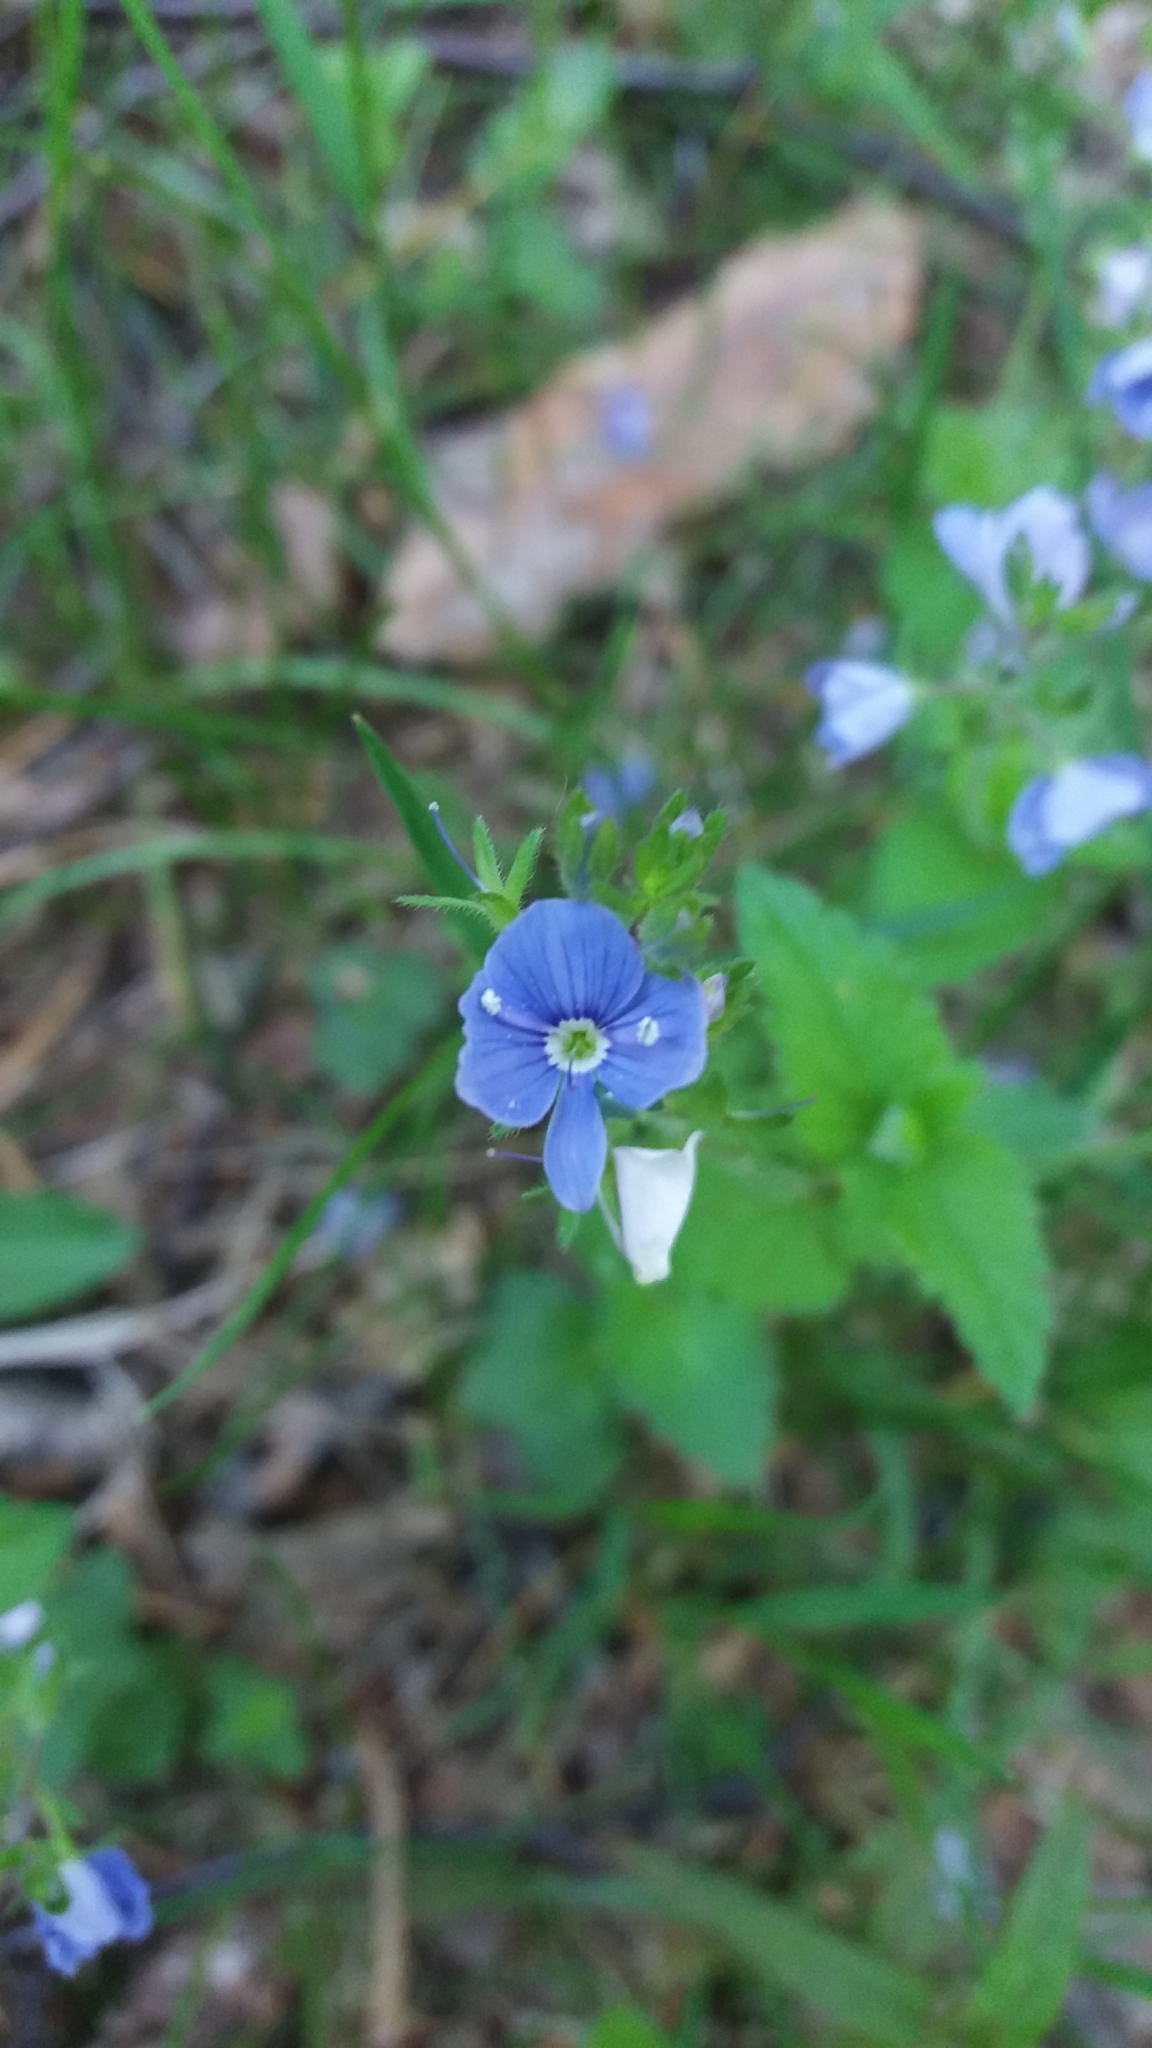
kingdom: Plantae
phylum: Tracheophyta
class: Magnoliopsida
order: Lamiales
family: Plantaginaceae
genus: Veronica
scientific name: Veronica chamaedrys
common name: Germander speedwell
